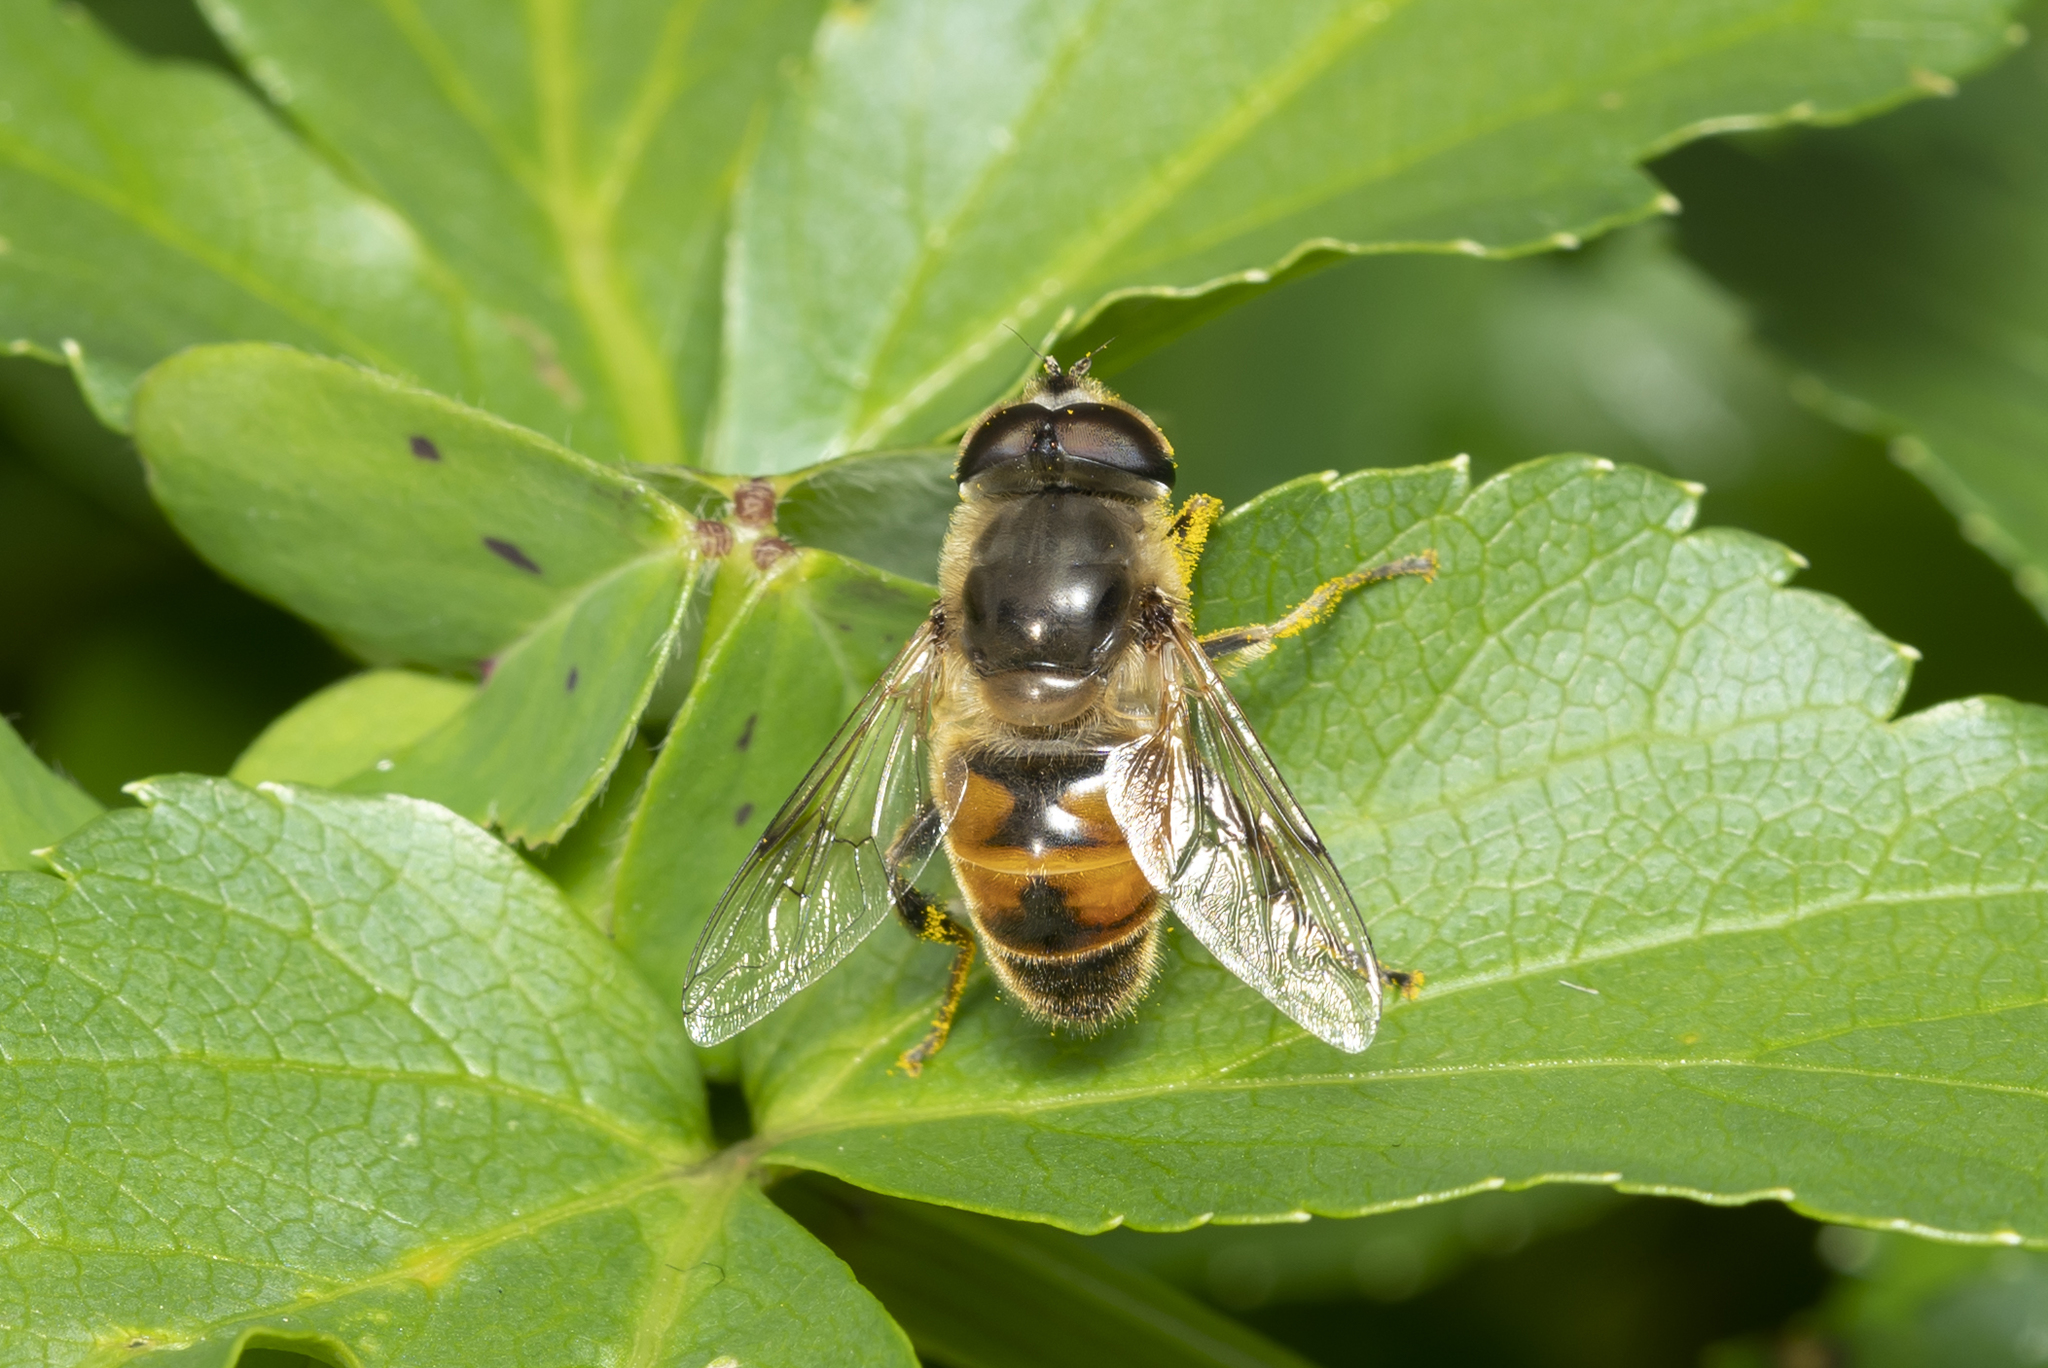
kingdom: Animalia
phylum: Arthropoda
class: Insecta
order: Diptera
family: Syrphidae
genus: Eristalis
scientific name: Eristalis tenax
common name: Drone fly
